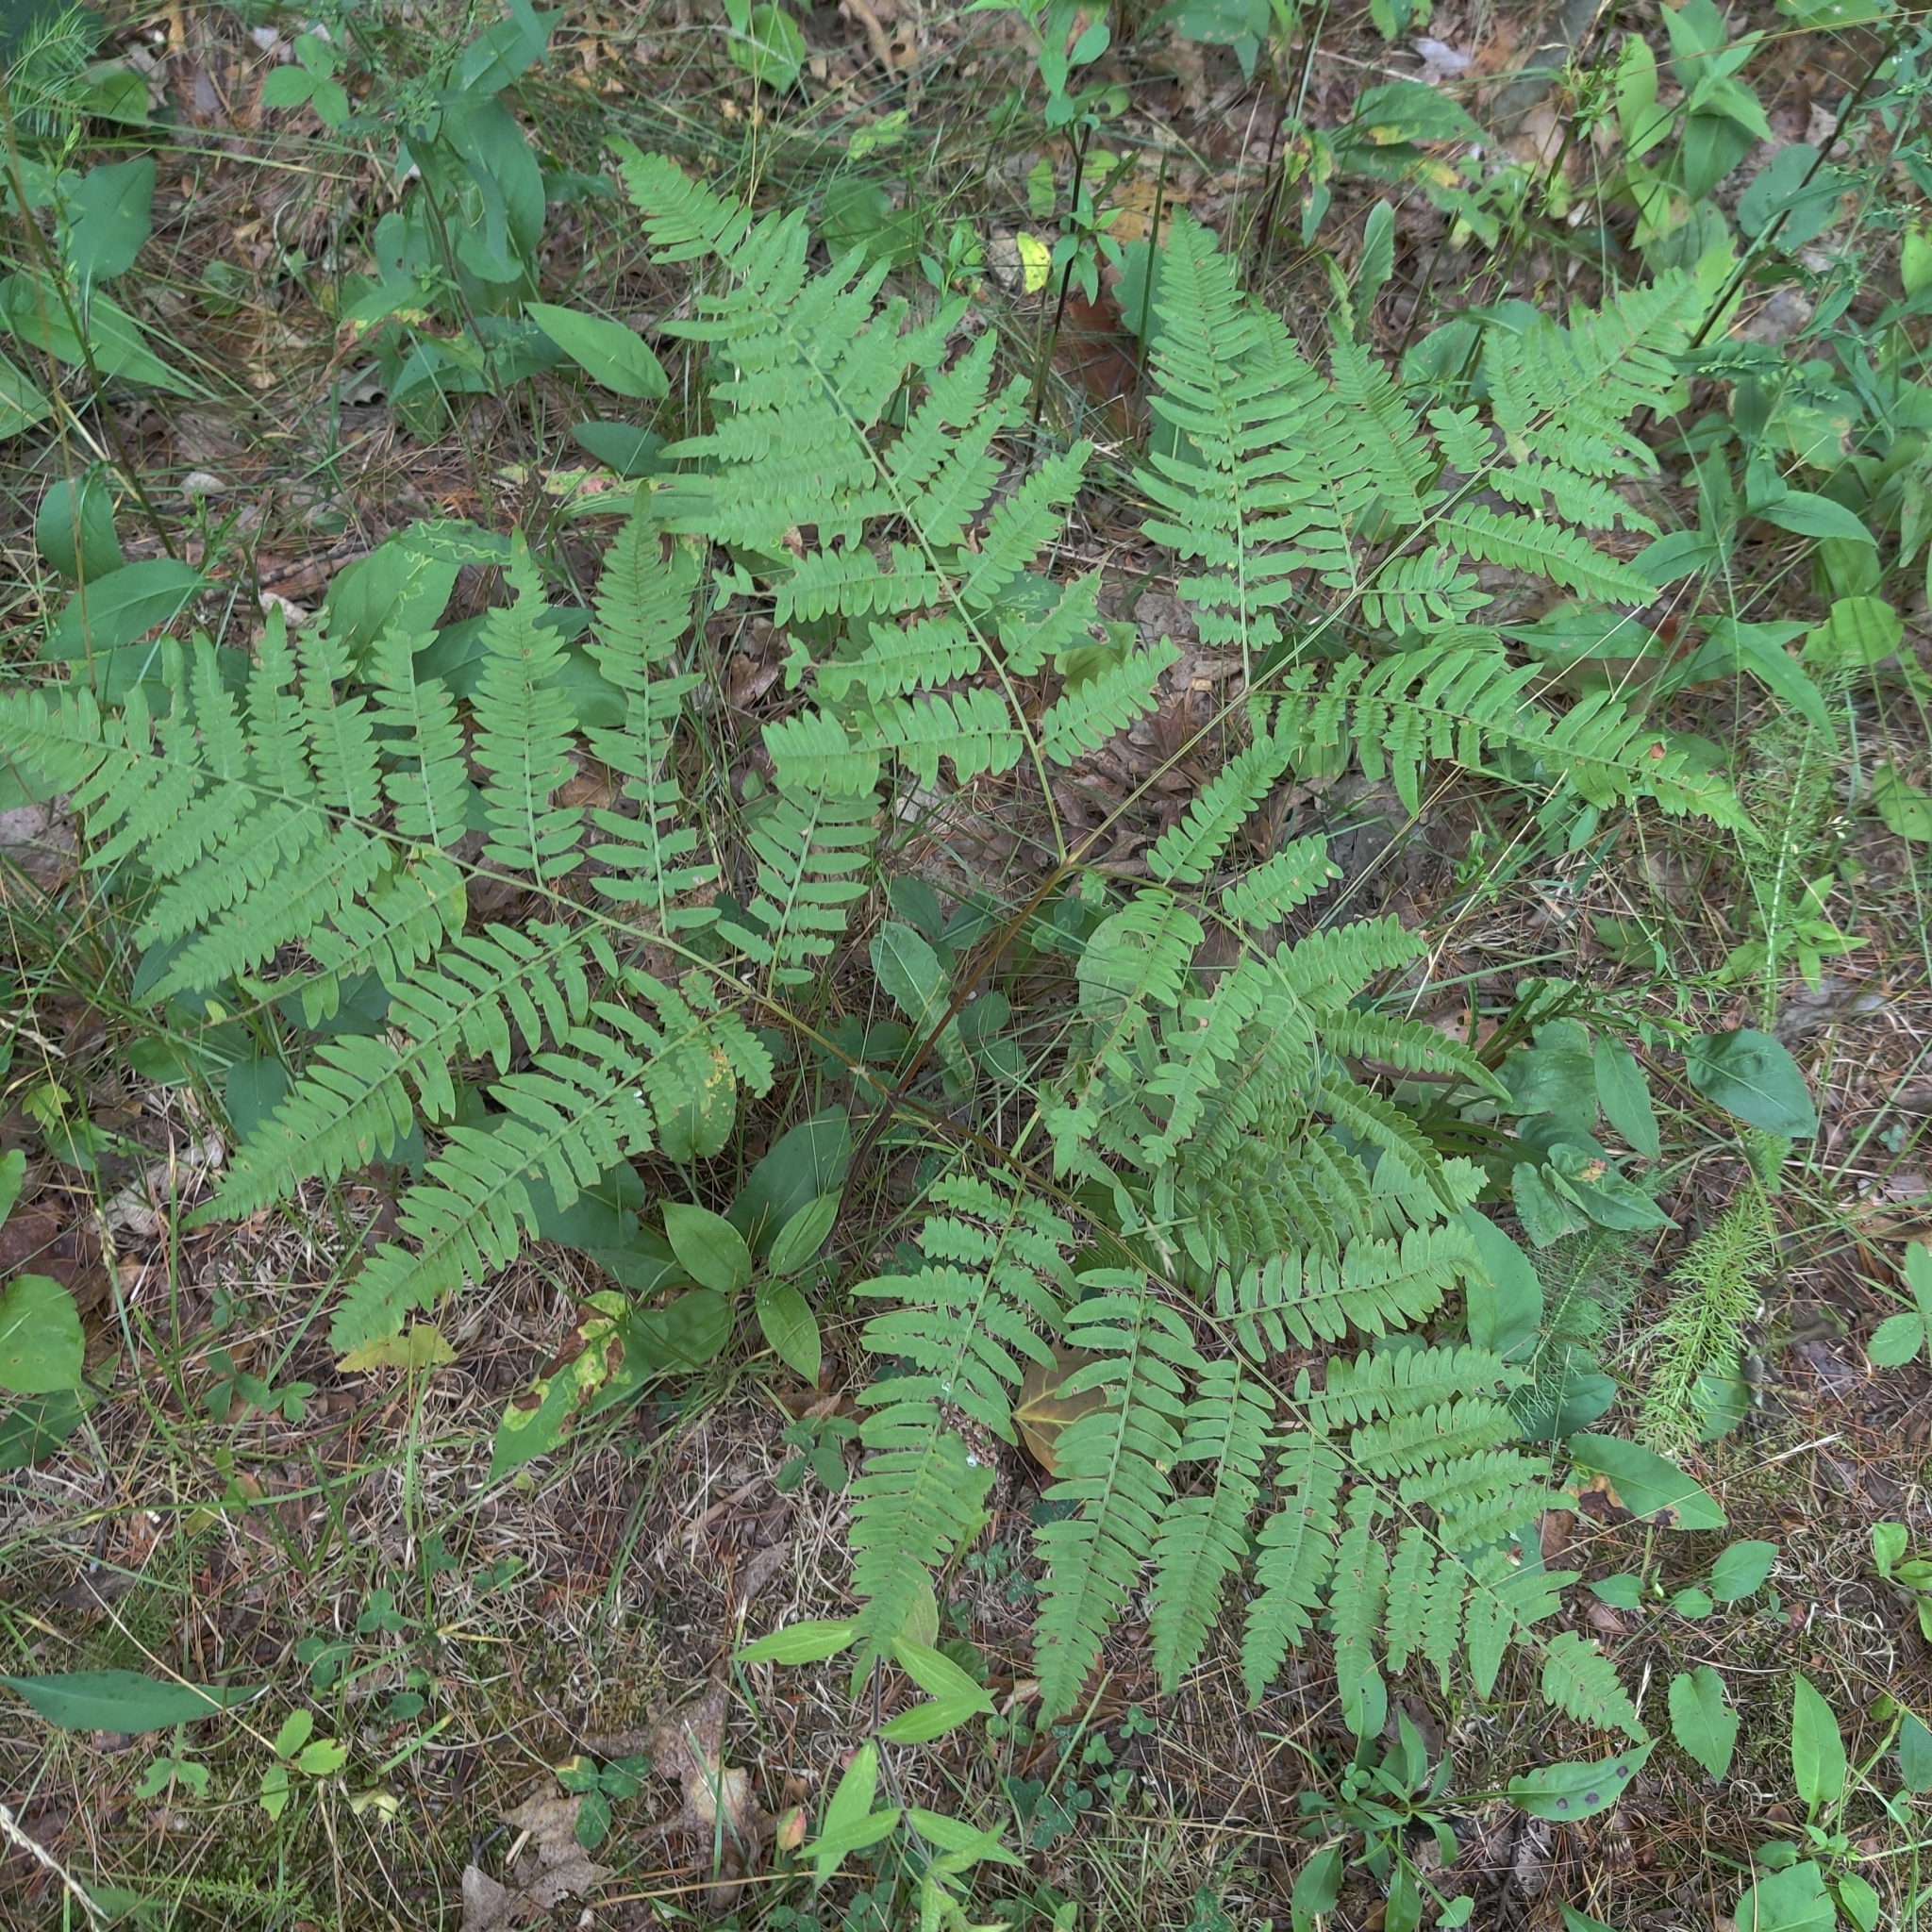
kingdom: Plantae
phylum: Tracheophyta
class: Polypodiopsida
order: Polypodiales
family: Dennstaedtiaceae
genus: Pteridium
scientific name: Pteridium aquilinum
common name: Bracken
